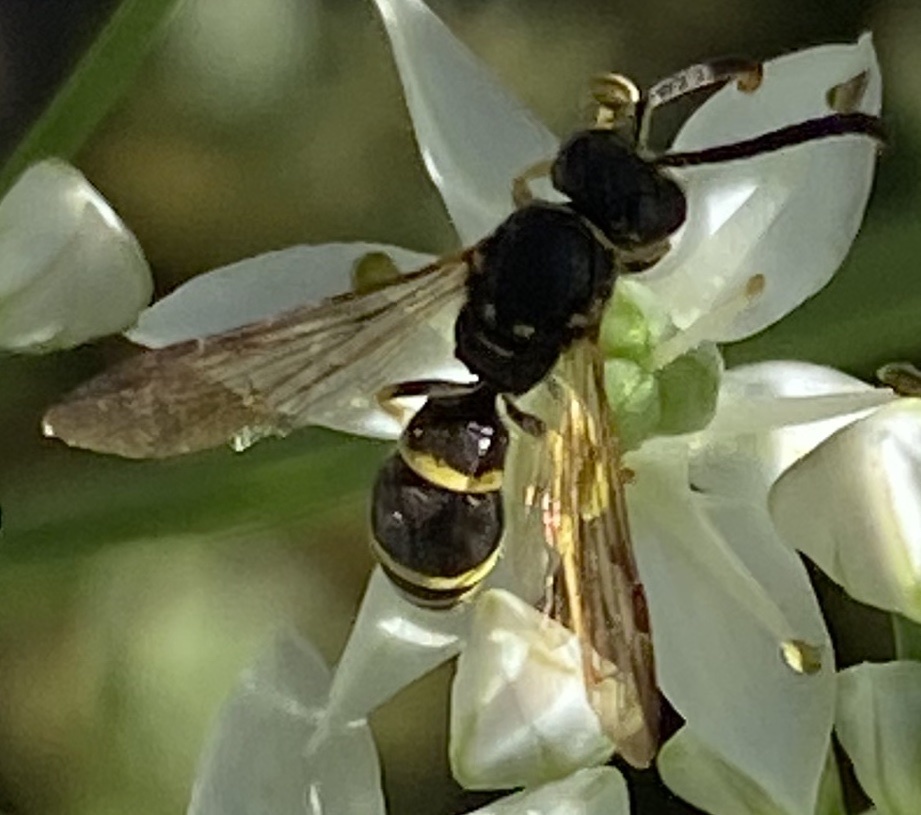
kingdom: Animalia
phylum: Arthropoda
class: Insecta
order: Hymenoptera
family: Vespidae
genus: Ancistrocerus
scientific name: Ancistrocerus adiabatus
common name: Bramble mason wasp
